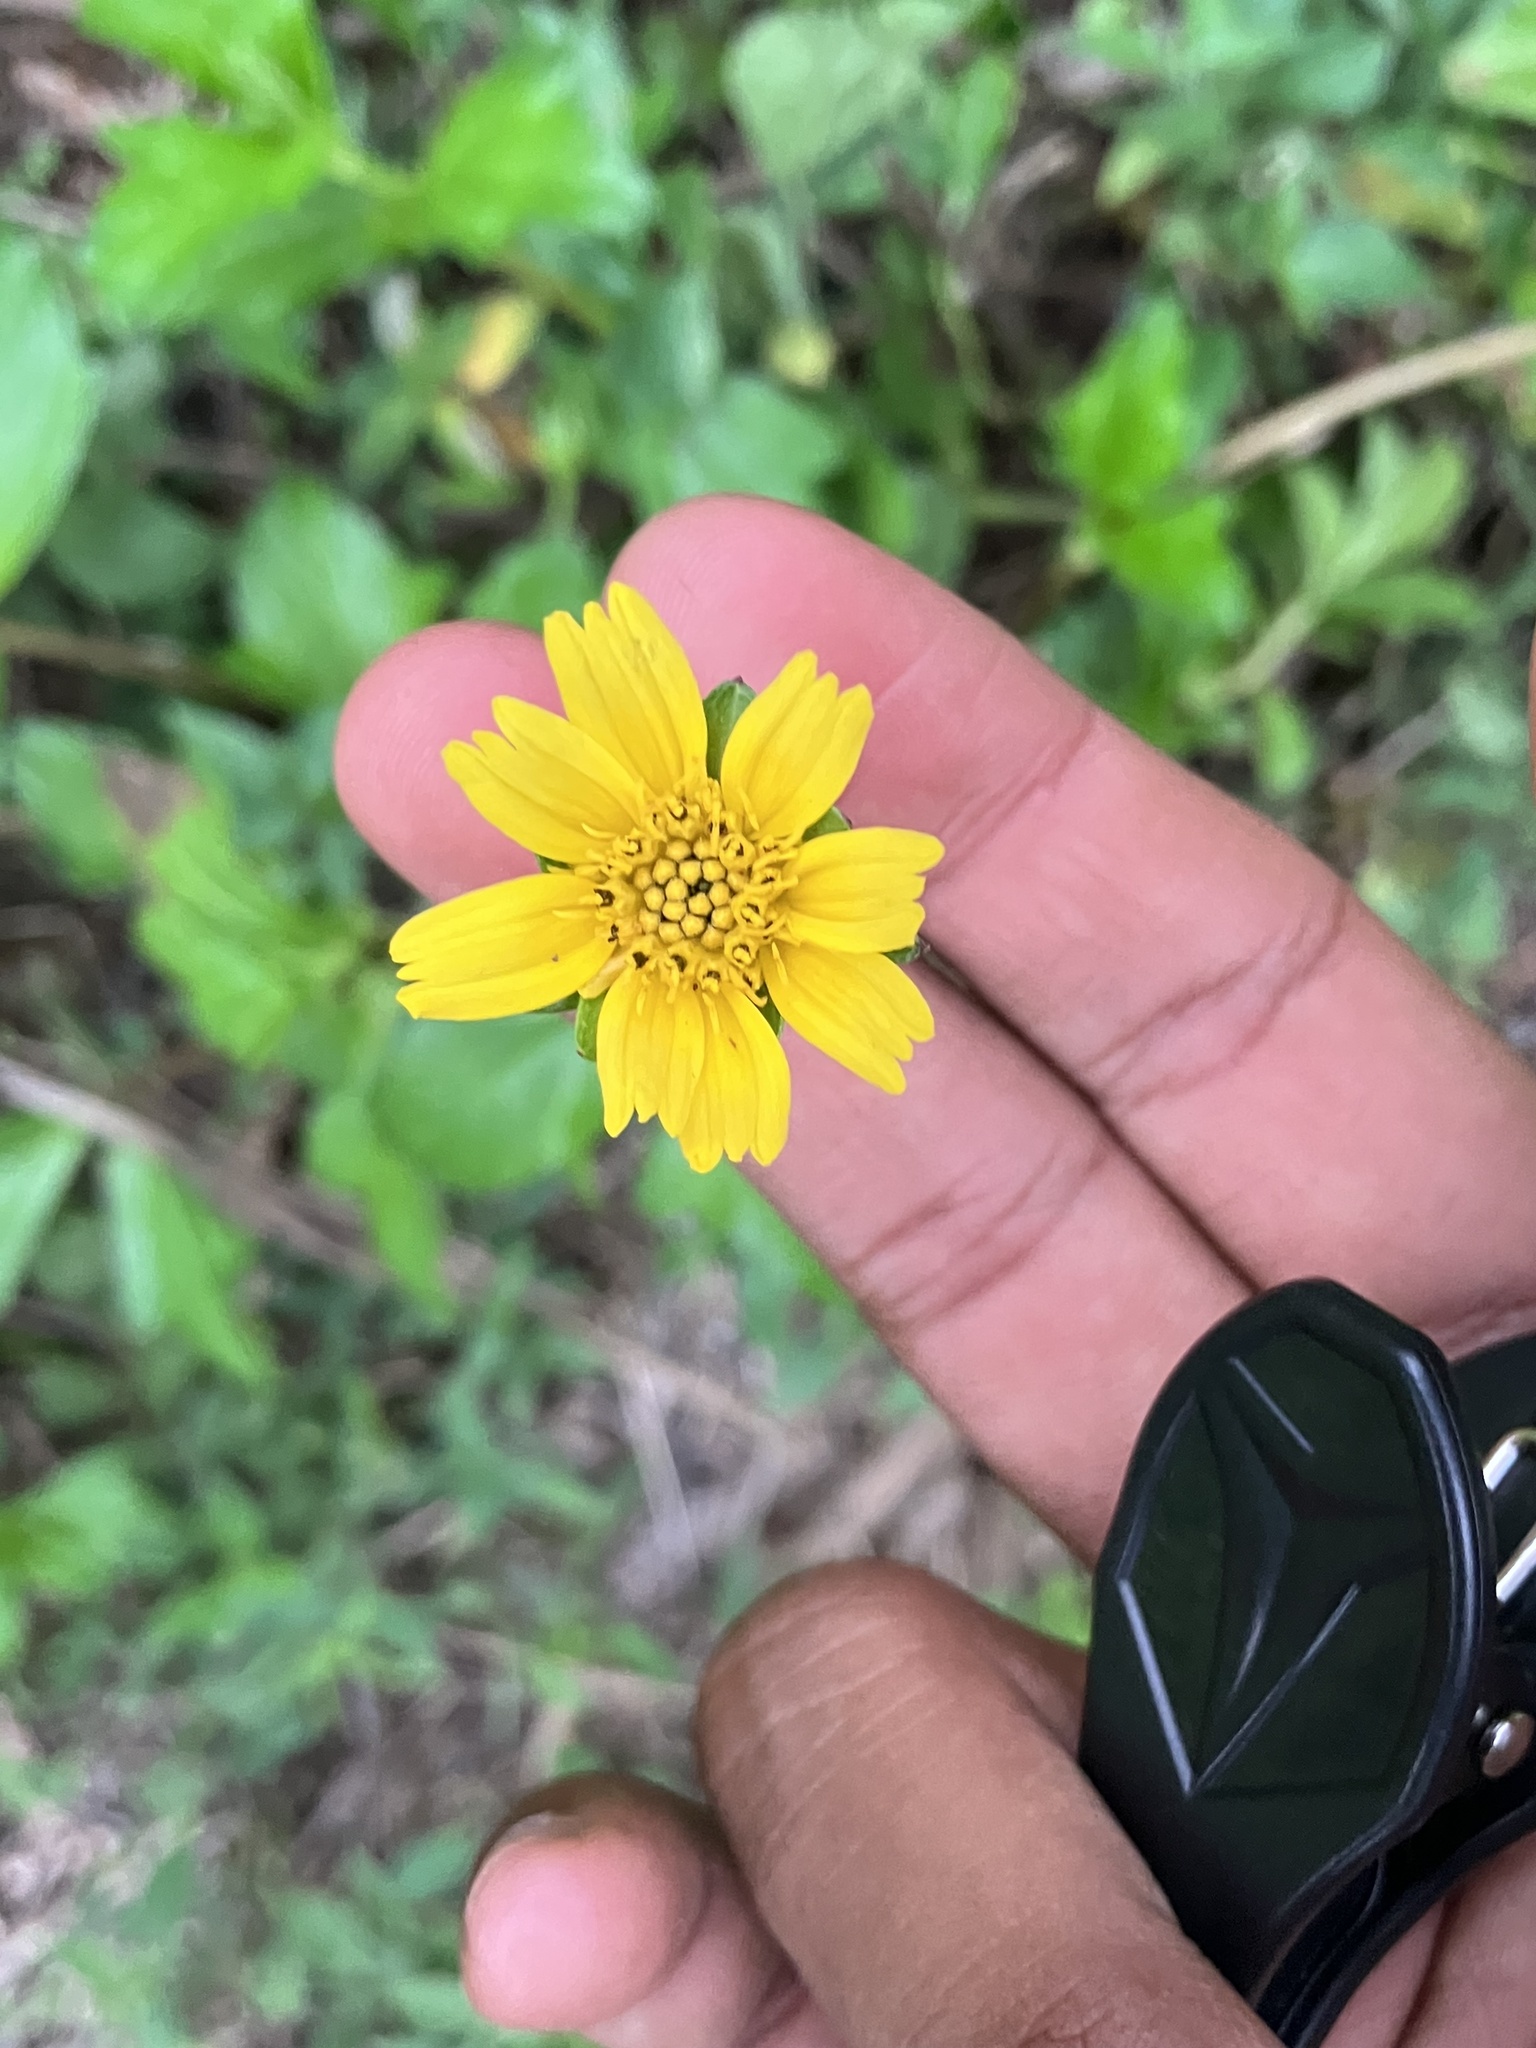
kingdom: Plantae
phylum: Tracheophyta
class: Magnoliopsida
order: Asterales
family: Asteraceae
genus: Sphagneticola
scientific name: Sphagneticola trilobata
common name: Bay biscayne creeping-oxeye
